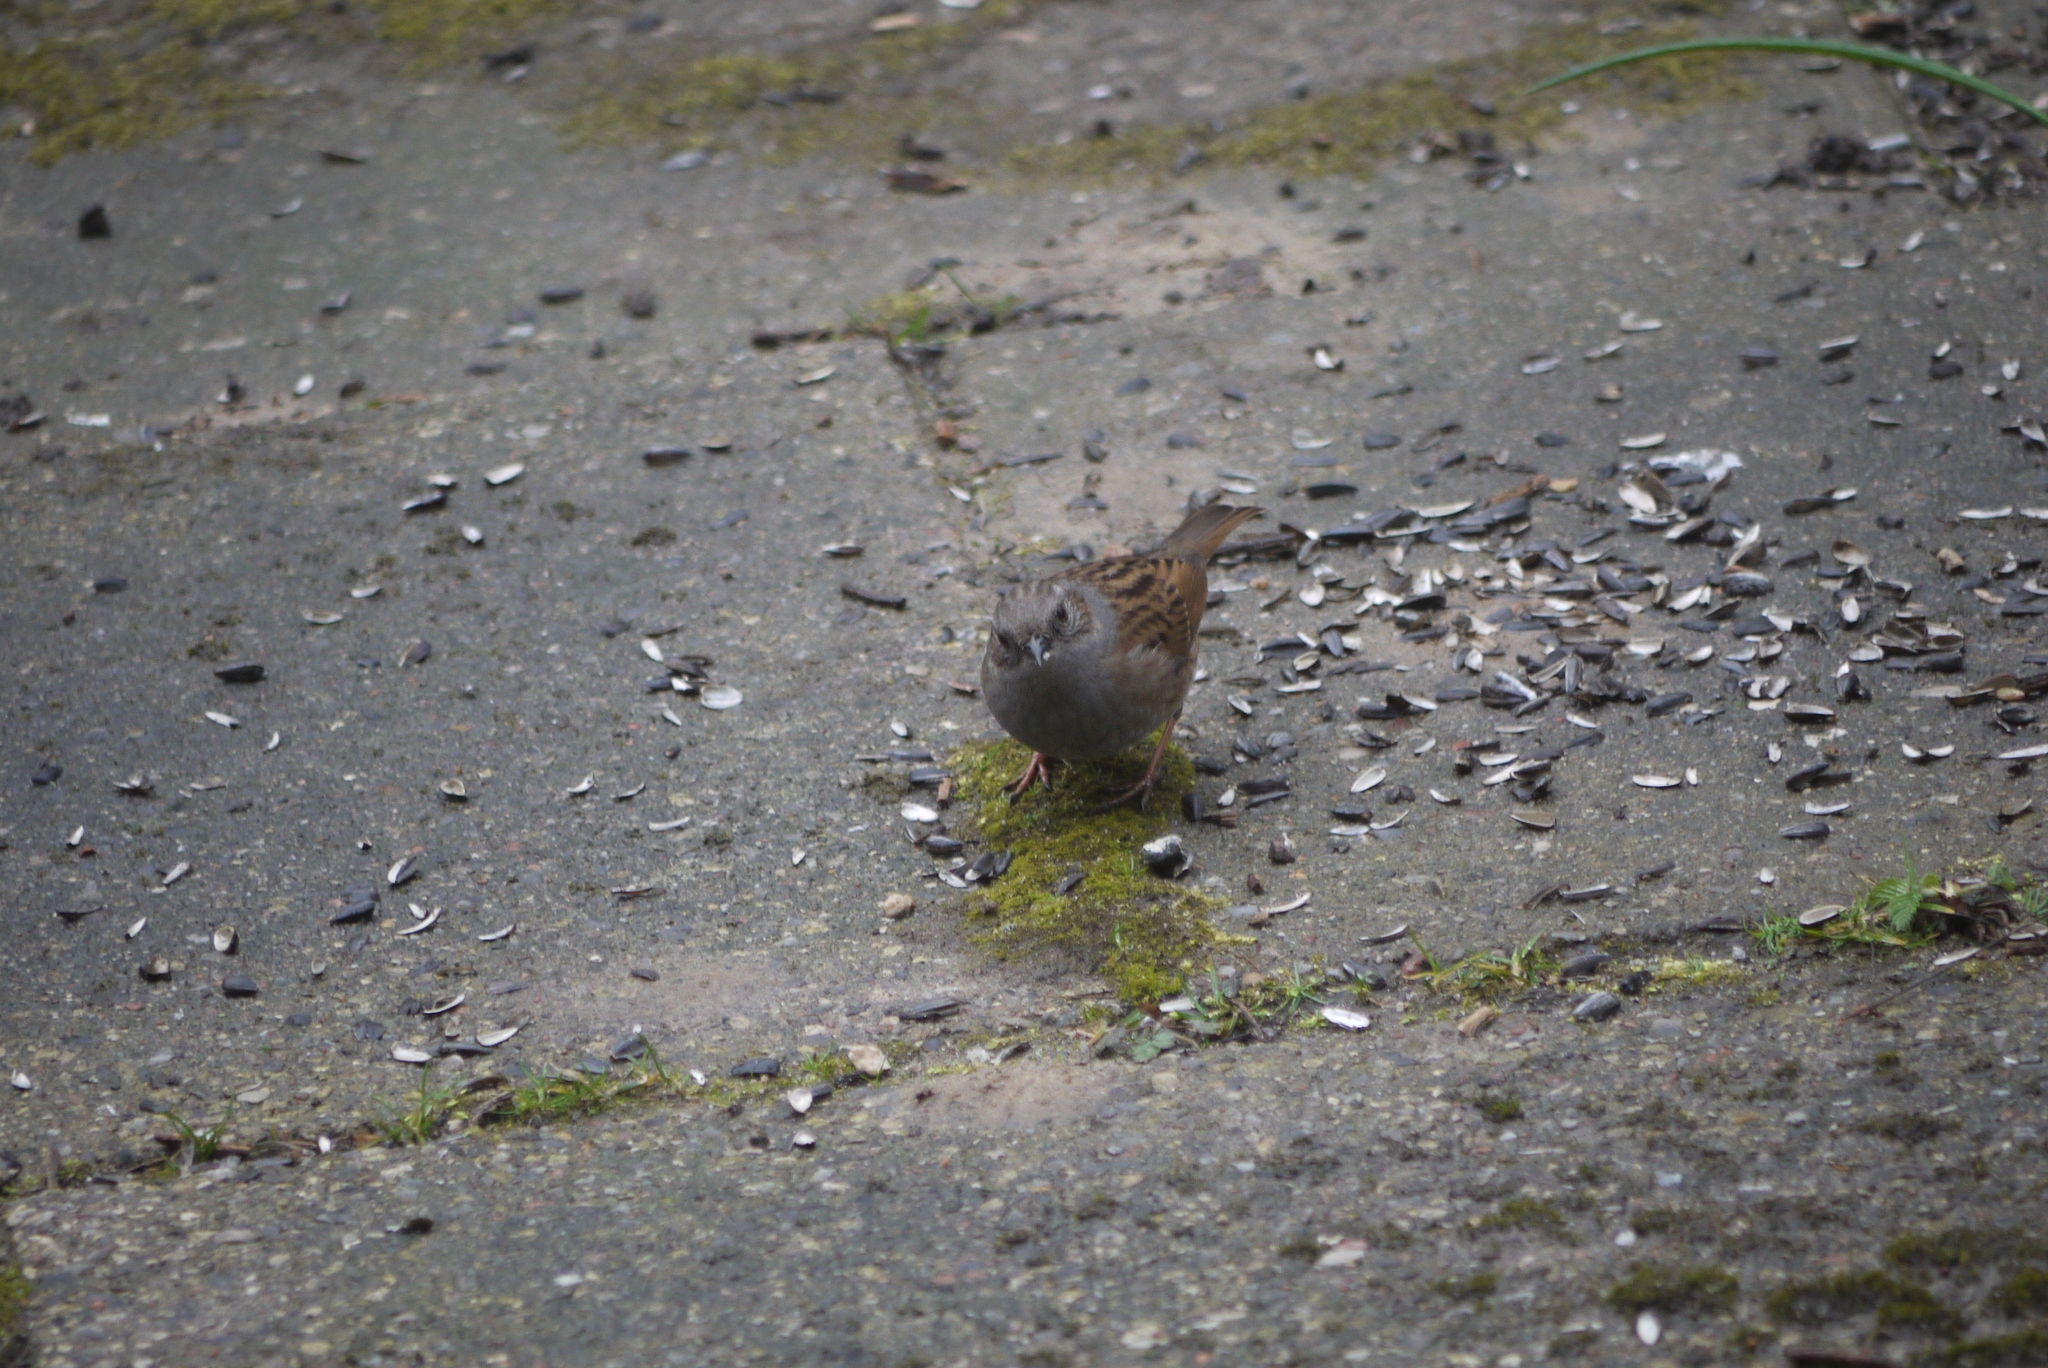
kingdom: Animalia
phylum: Chordata
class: Aves
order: Passeriformes
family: Prunellidae
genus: Prunella
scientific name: Prunella modularis
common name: Dunnock
